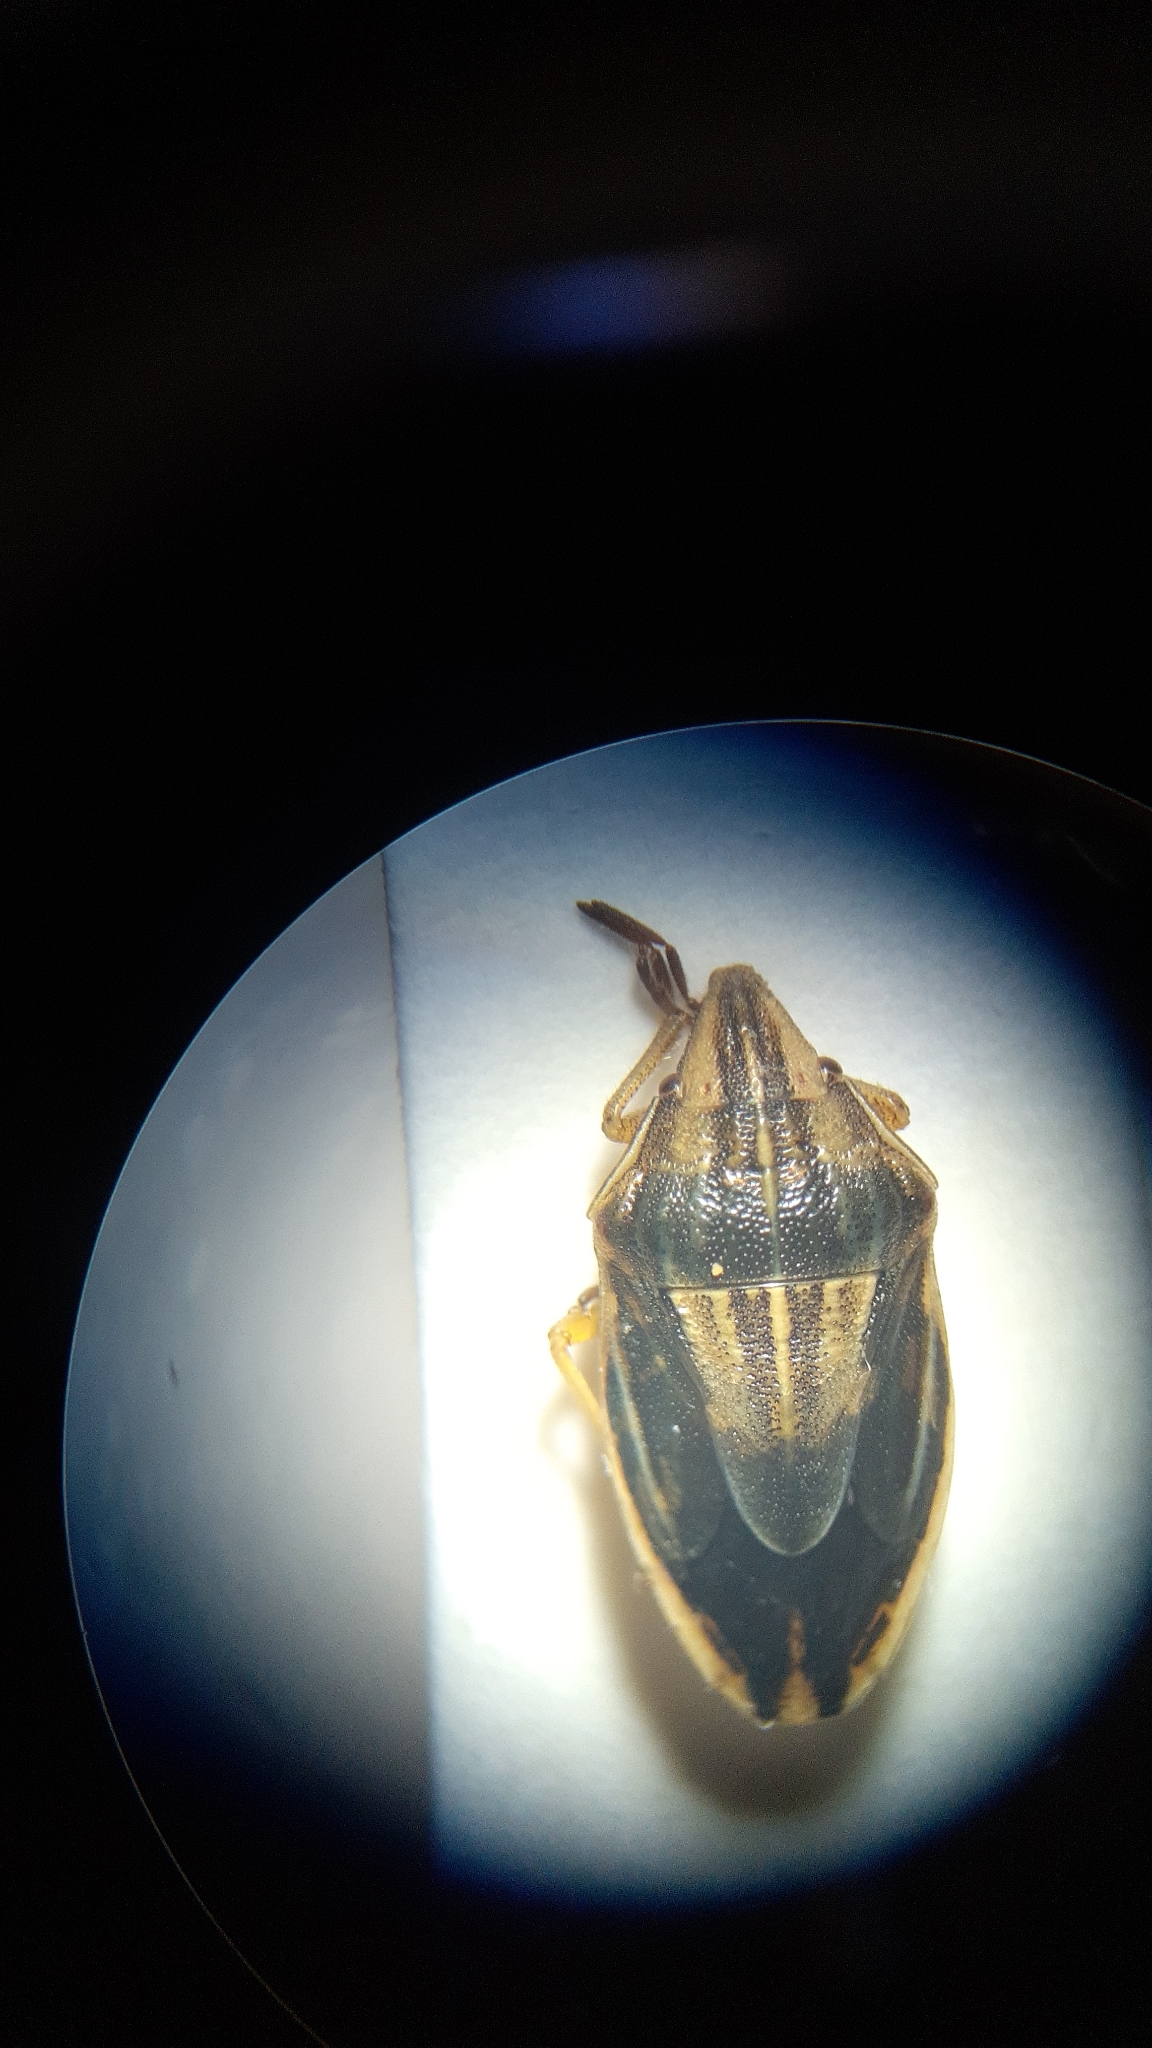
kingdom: Animalia
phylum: Arthropoda
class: Insecta
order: Hemiptera
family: Pentatomidae
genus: Aelia
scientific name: Aelia acuminata
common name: Bishop's mitre
